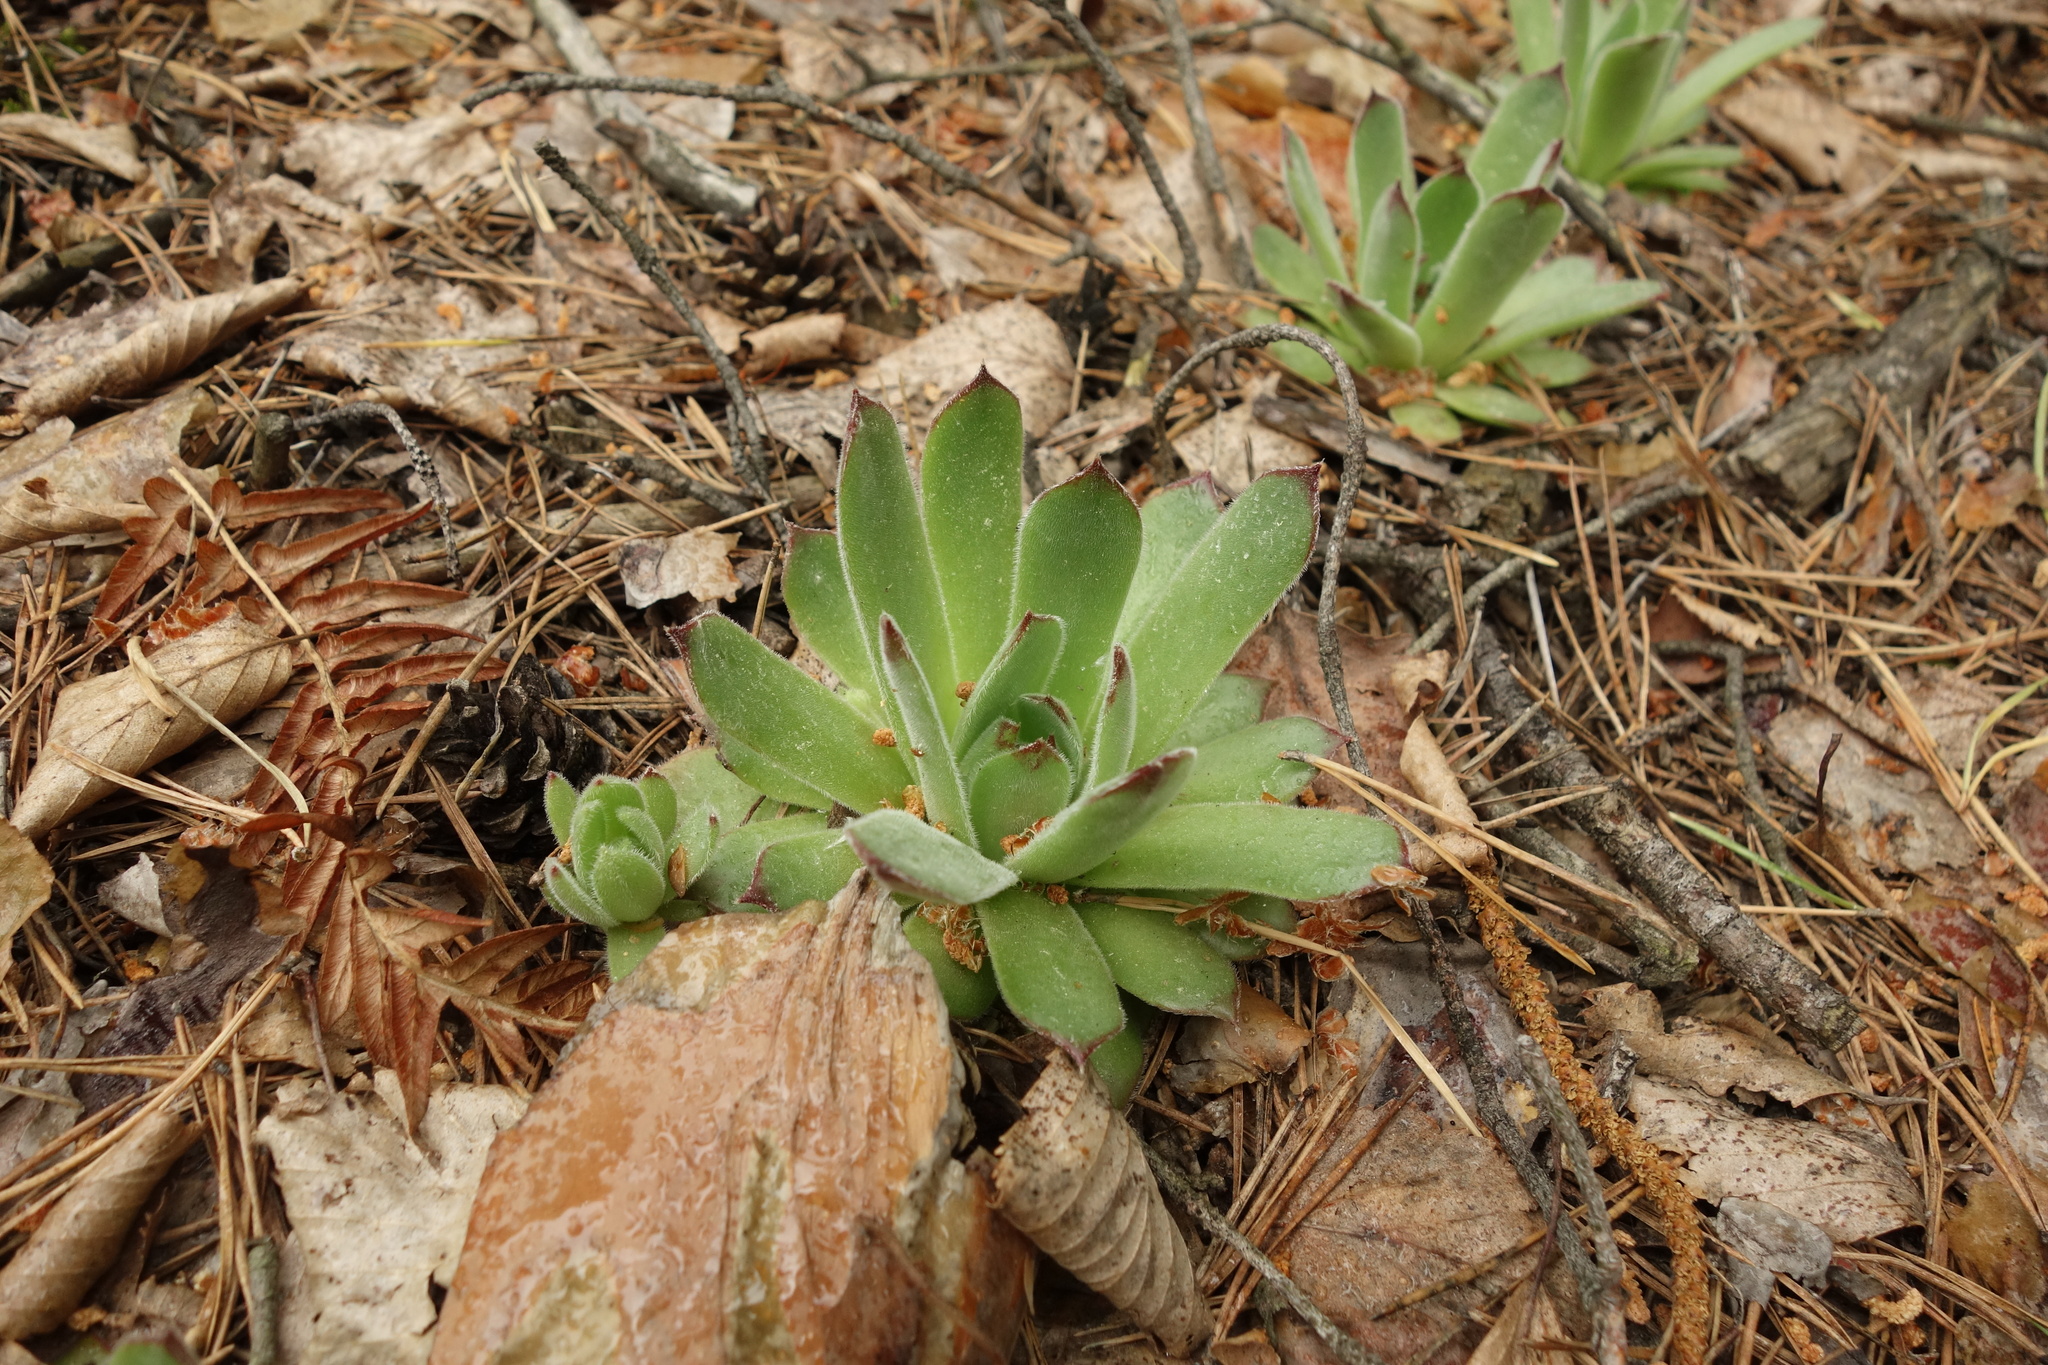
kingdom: Plantae
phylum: Tracheophyta
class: Magnoliopsida
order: Saxifragales
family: Crassulaceae
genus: Sempervivum
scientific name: Sempervivum ruthenicum
